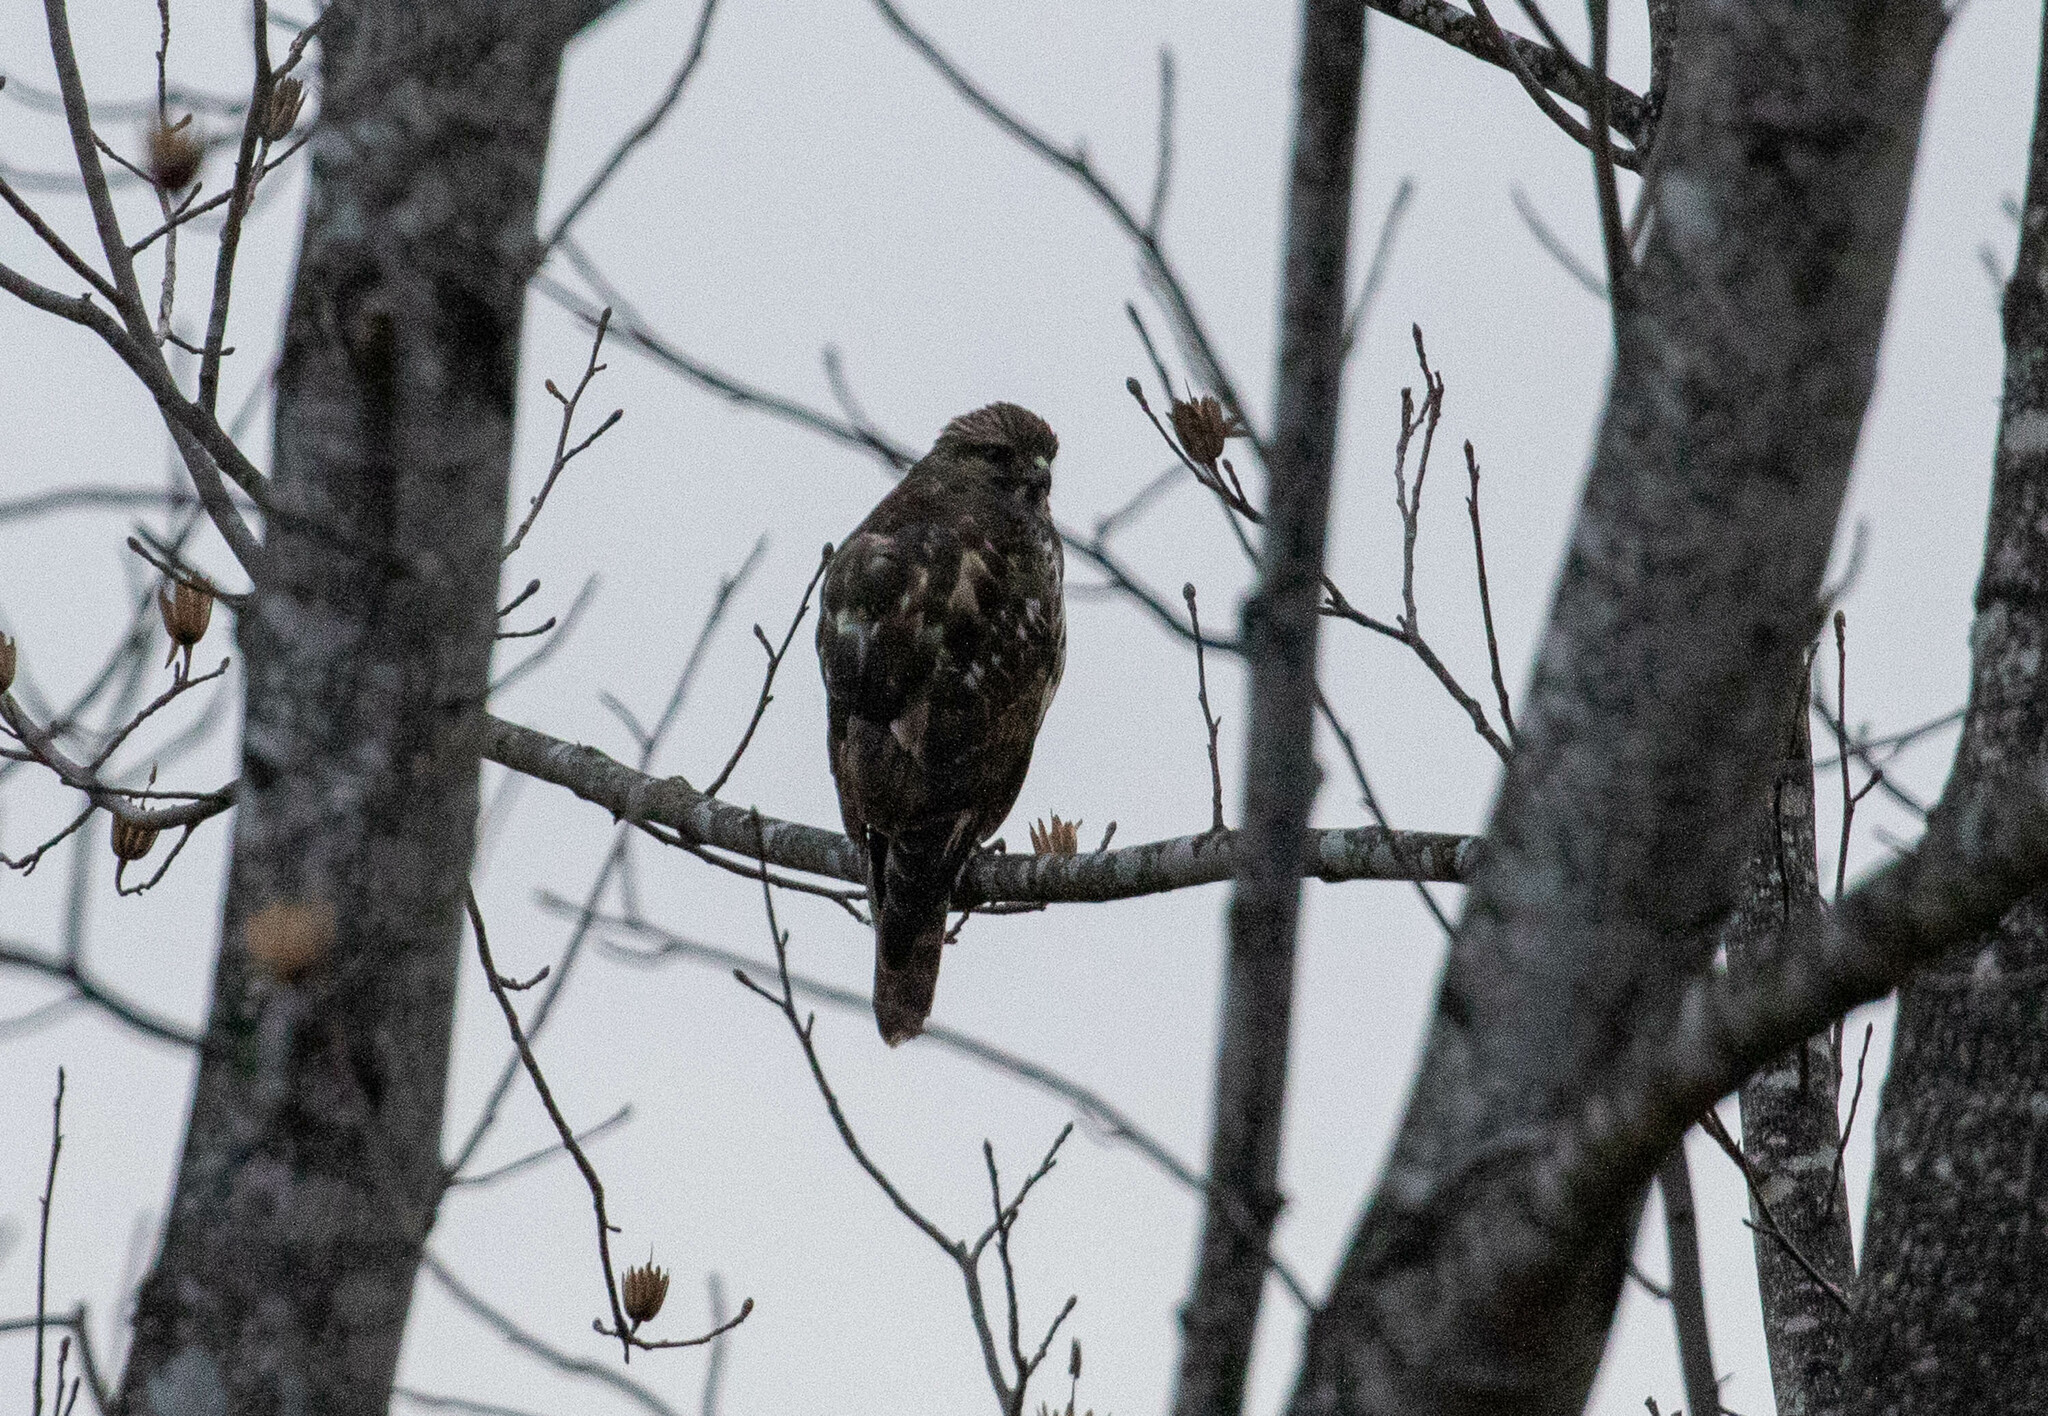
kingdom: Animalia
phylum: Chordata
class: Aves
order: Accipitriformes
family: Accipitridae
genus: Buteo
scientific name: Buteo lineatus
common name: Red-shouldered hawk
